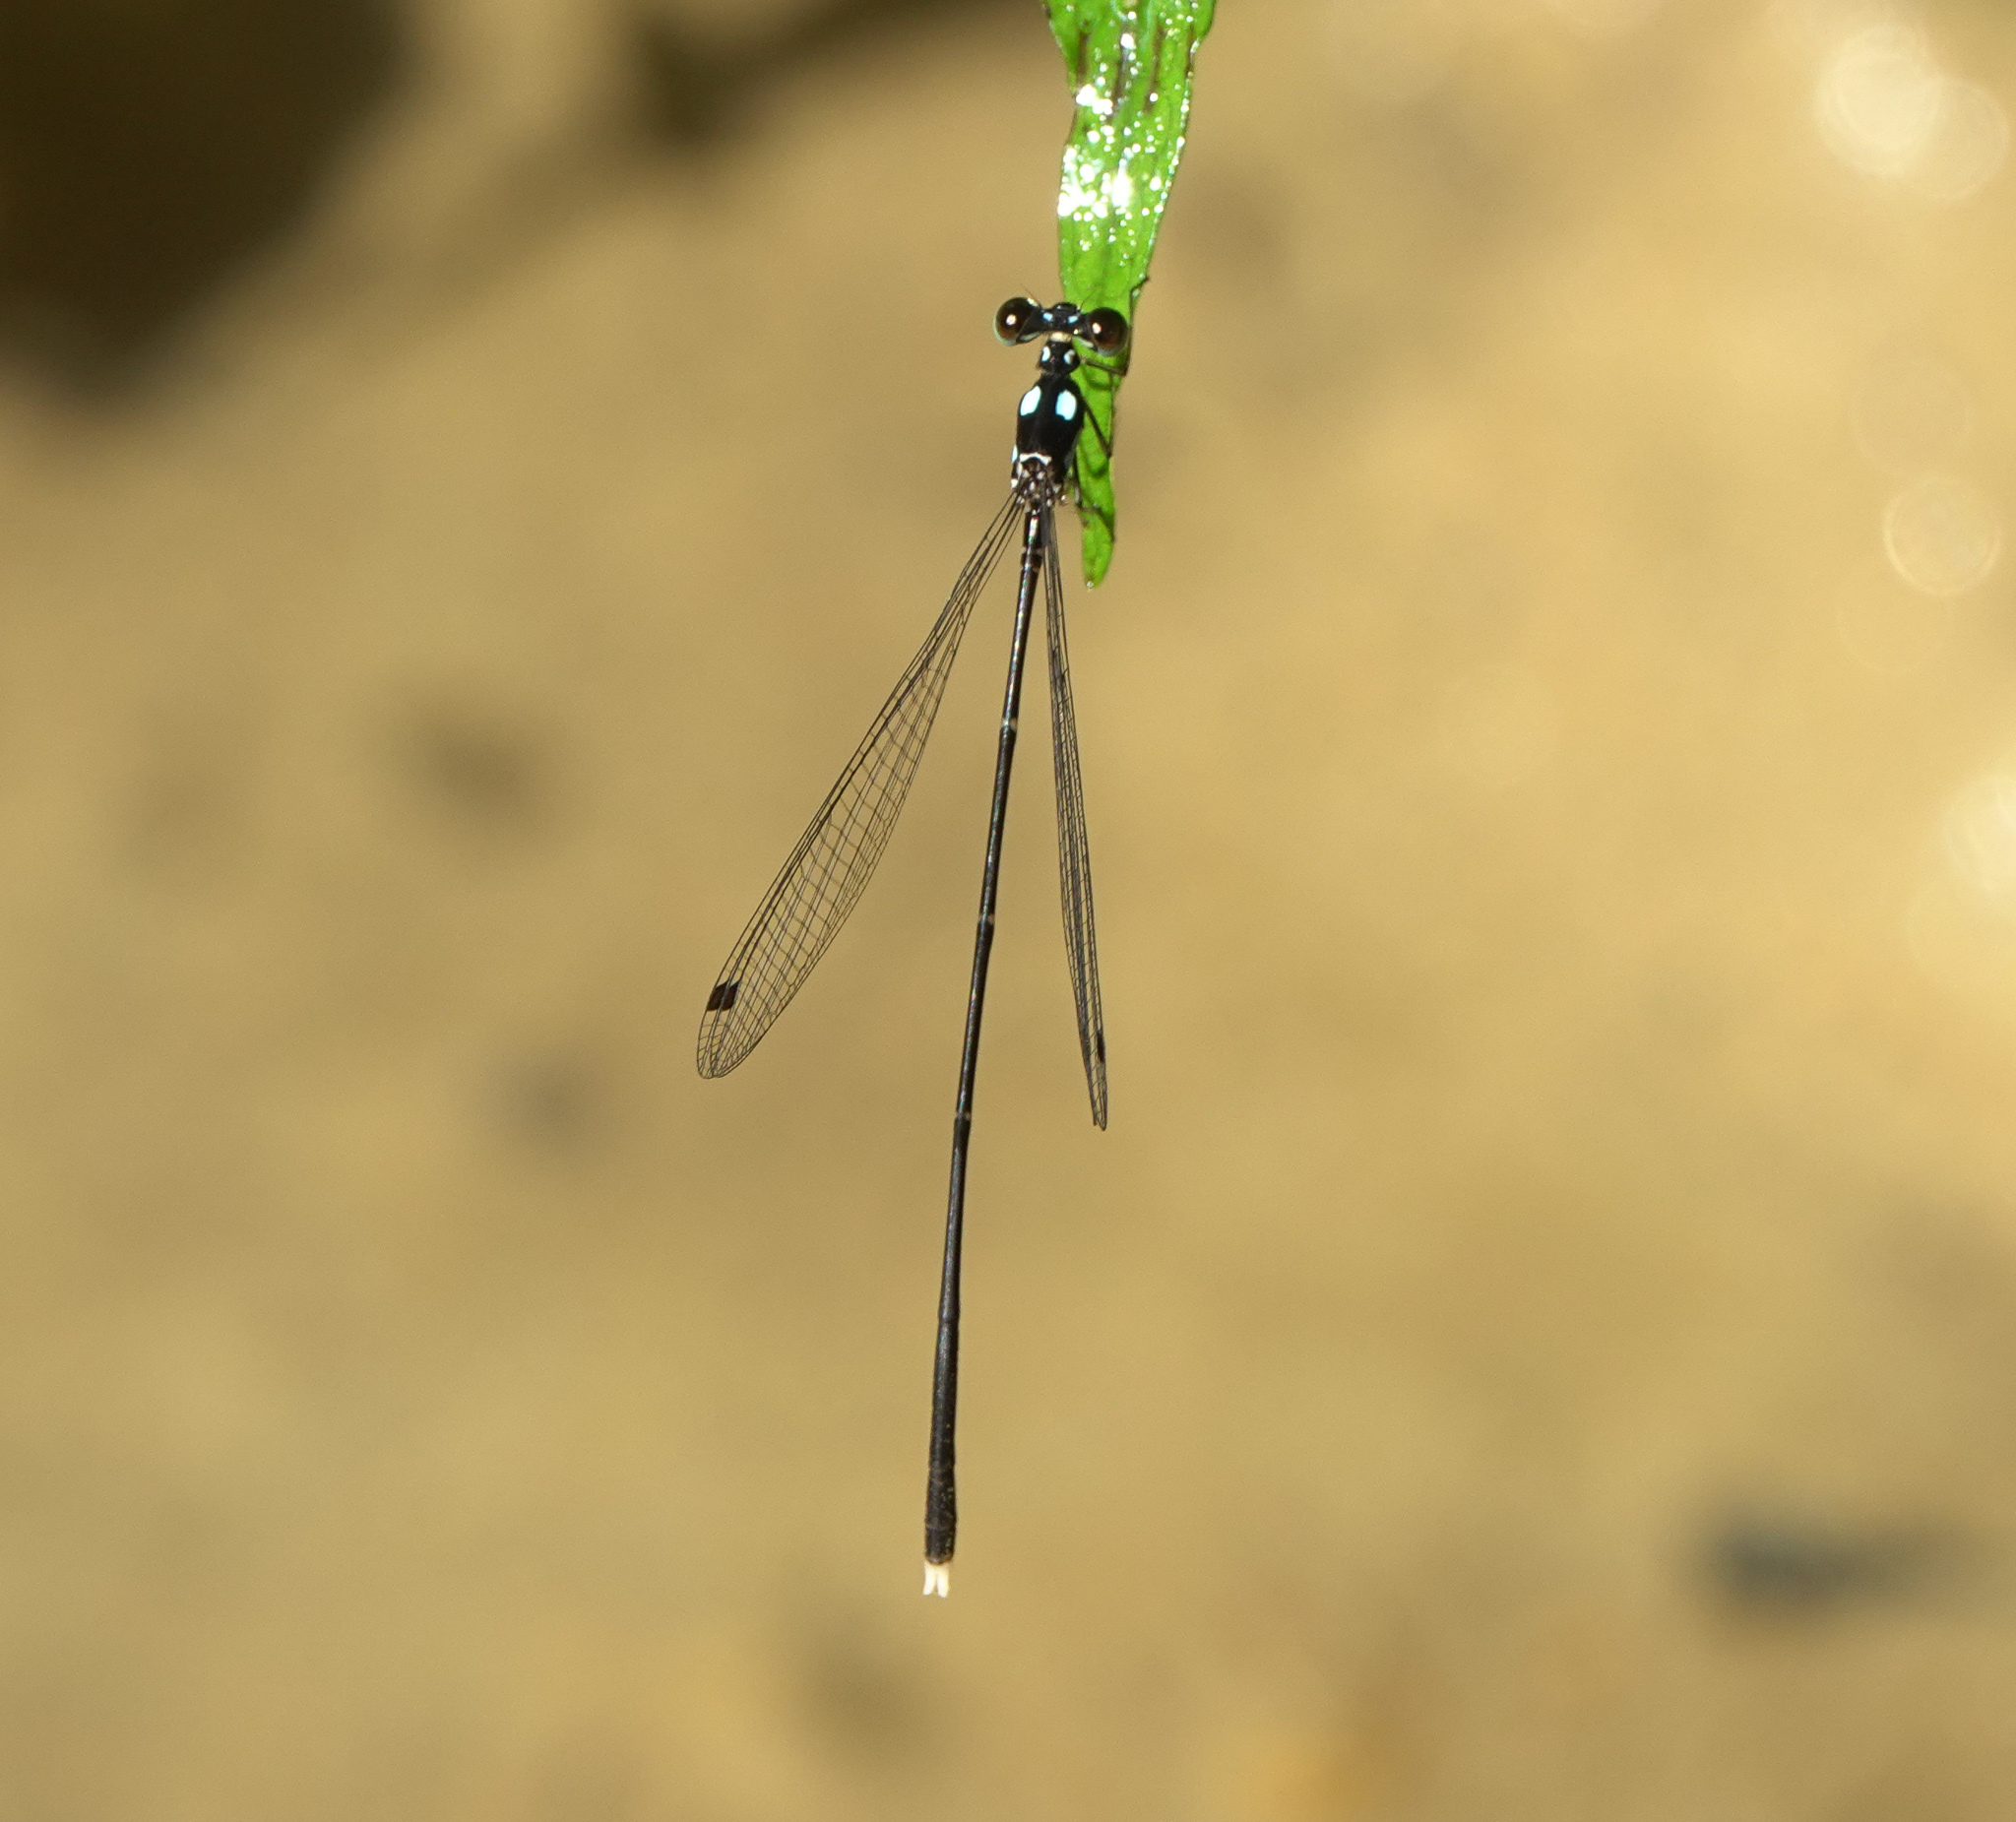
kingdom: Animalia
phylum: Arthropoda
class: Insecta
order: Odonata
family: Platycnemididae
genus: Coeliccia
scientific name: Coeliccia bimaculata
